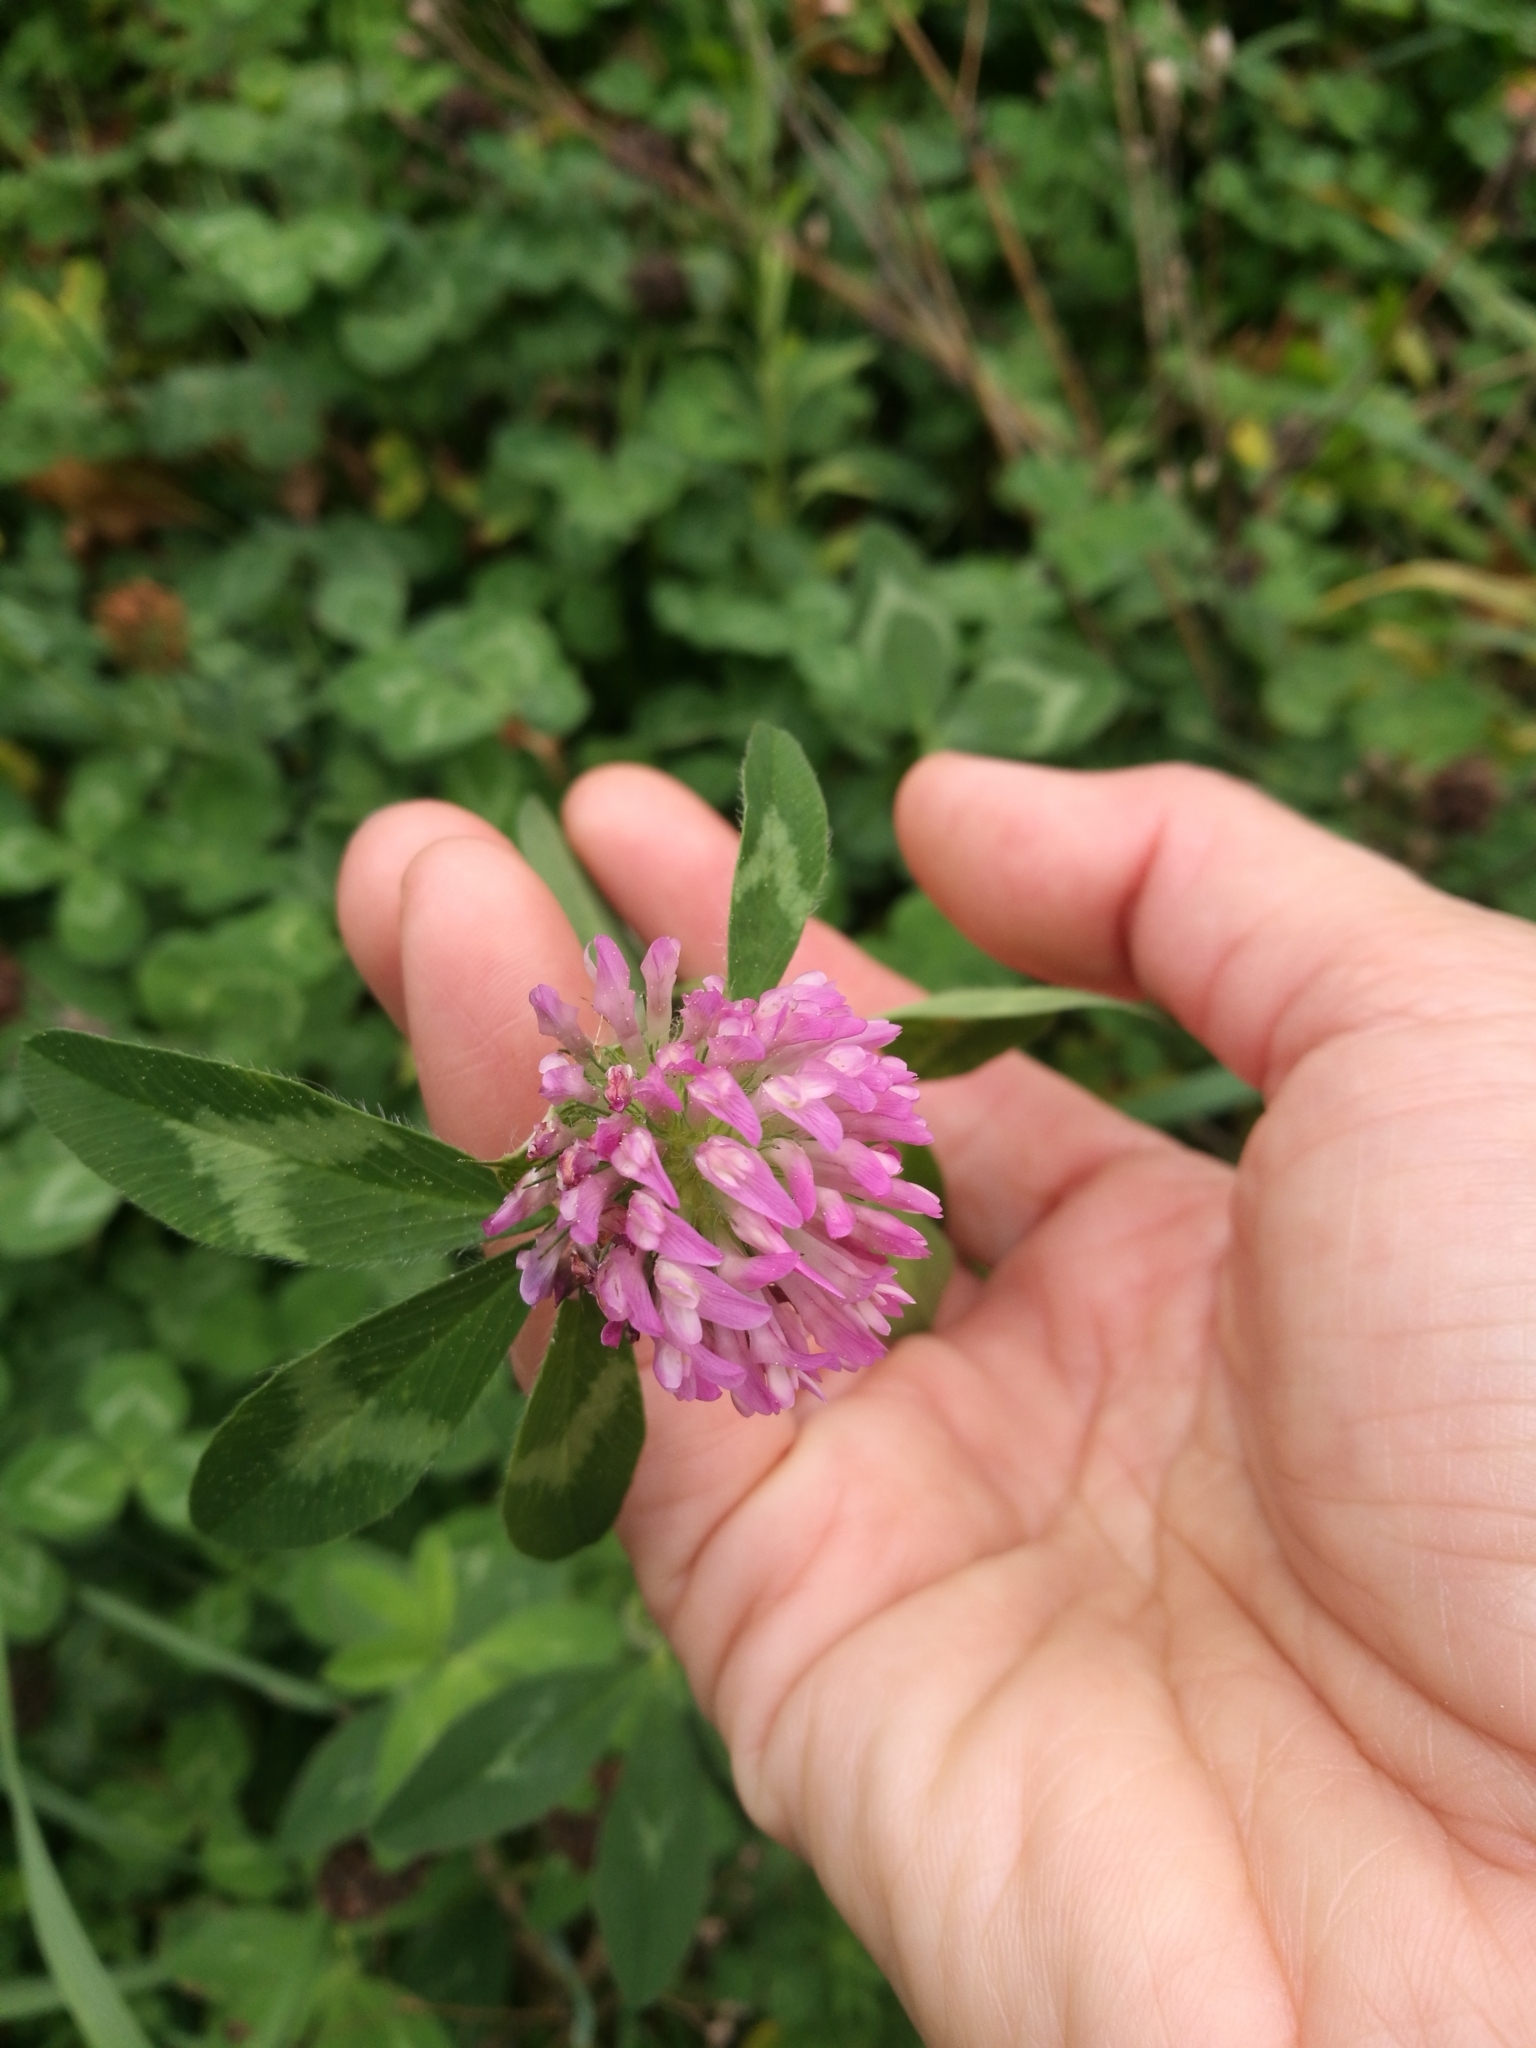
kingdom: Plantae
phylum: Tracheophyta
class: Magnoliopsida
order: Fabales
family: Fabaceae
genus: Trifolium
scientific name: Trifolium pratense
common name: Red clover
